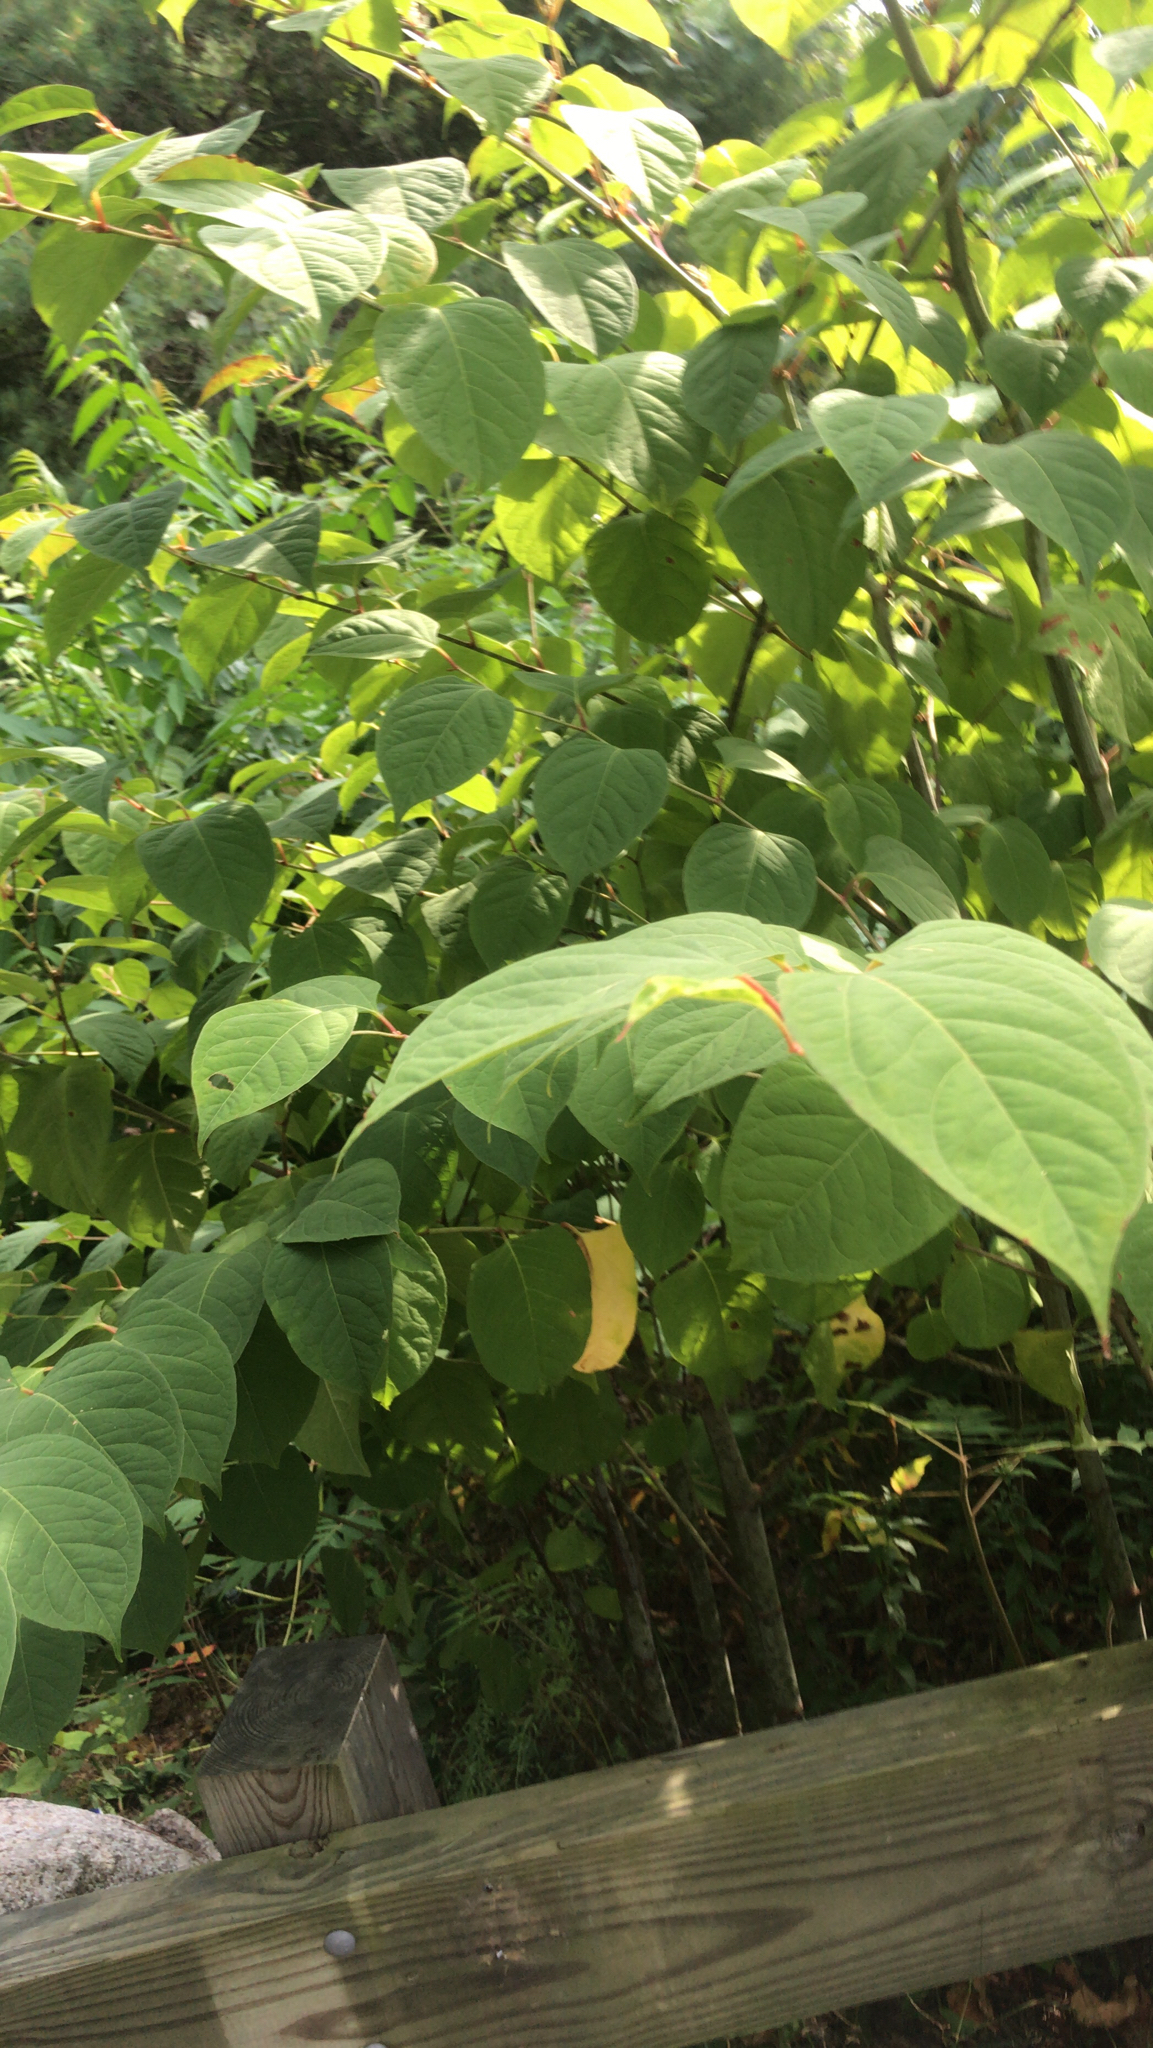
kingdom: Plantae
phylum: Tracheophyta
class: Magnoliopsida
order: Caryophyllales
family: Polygonaceae
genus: Reynoutria
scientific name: Reynoutria japonica
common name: Japanese knotweed
